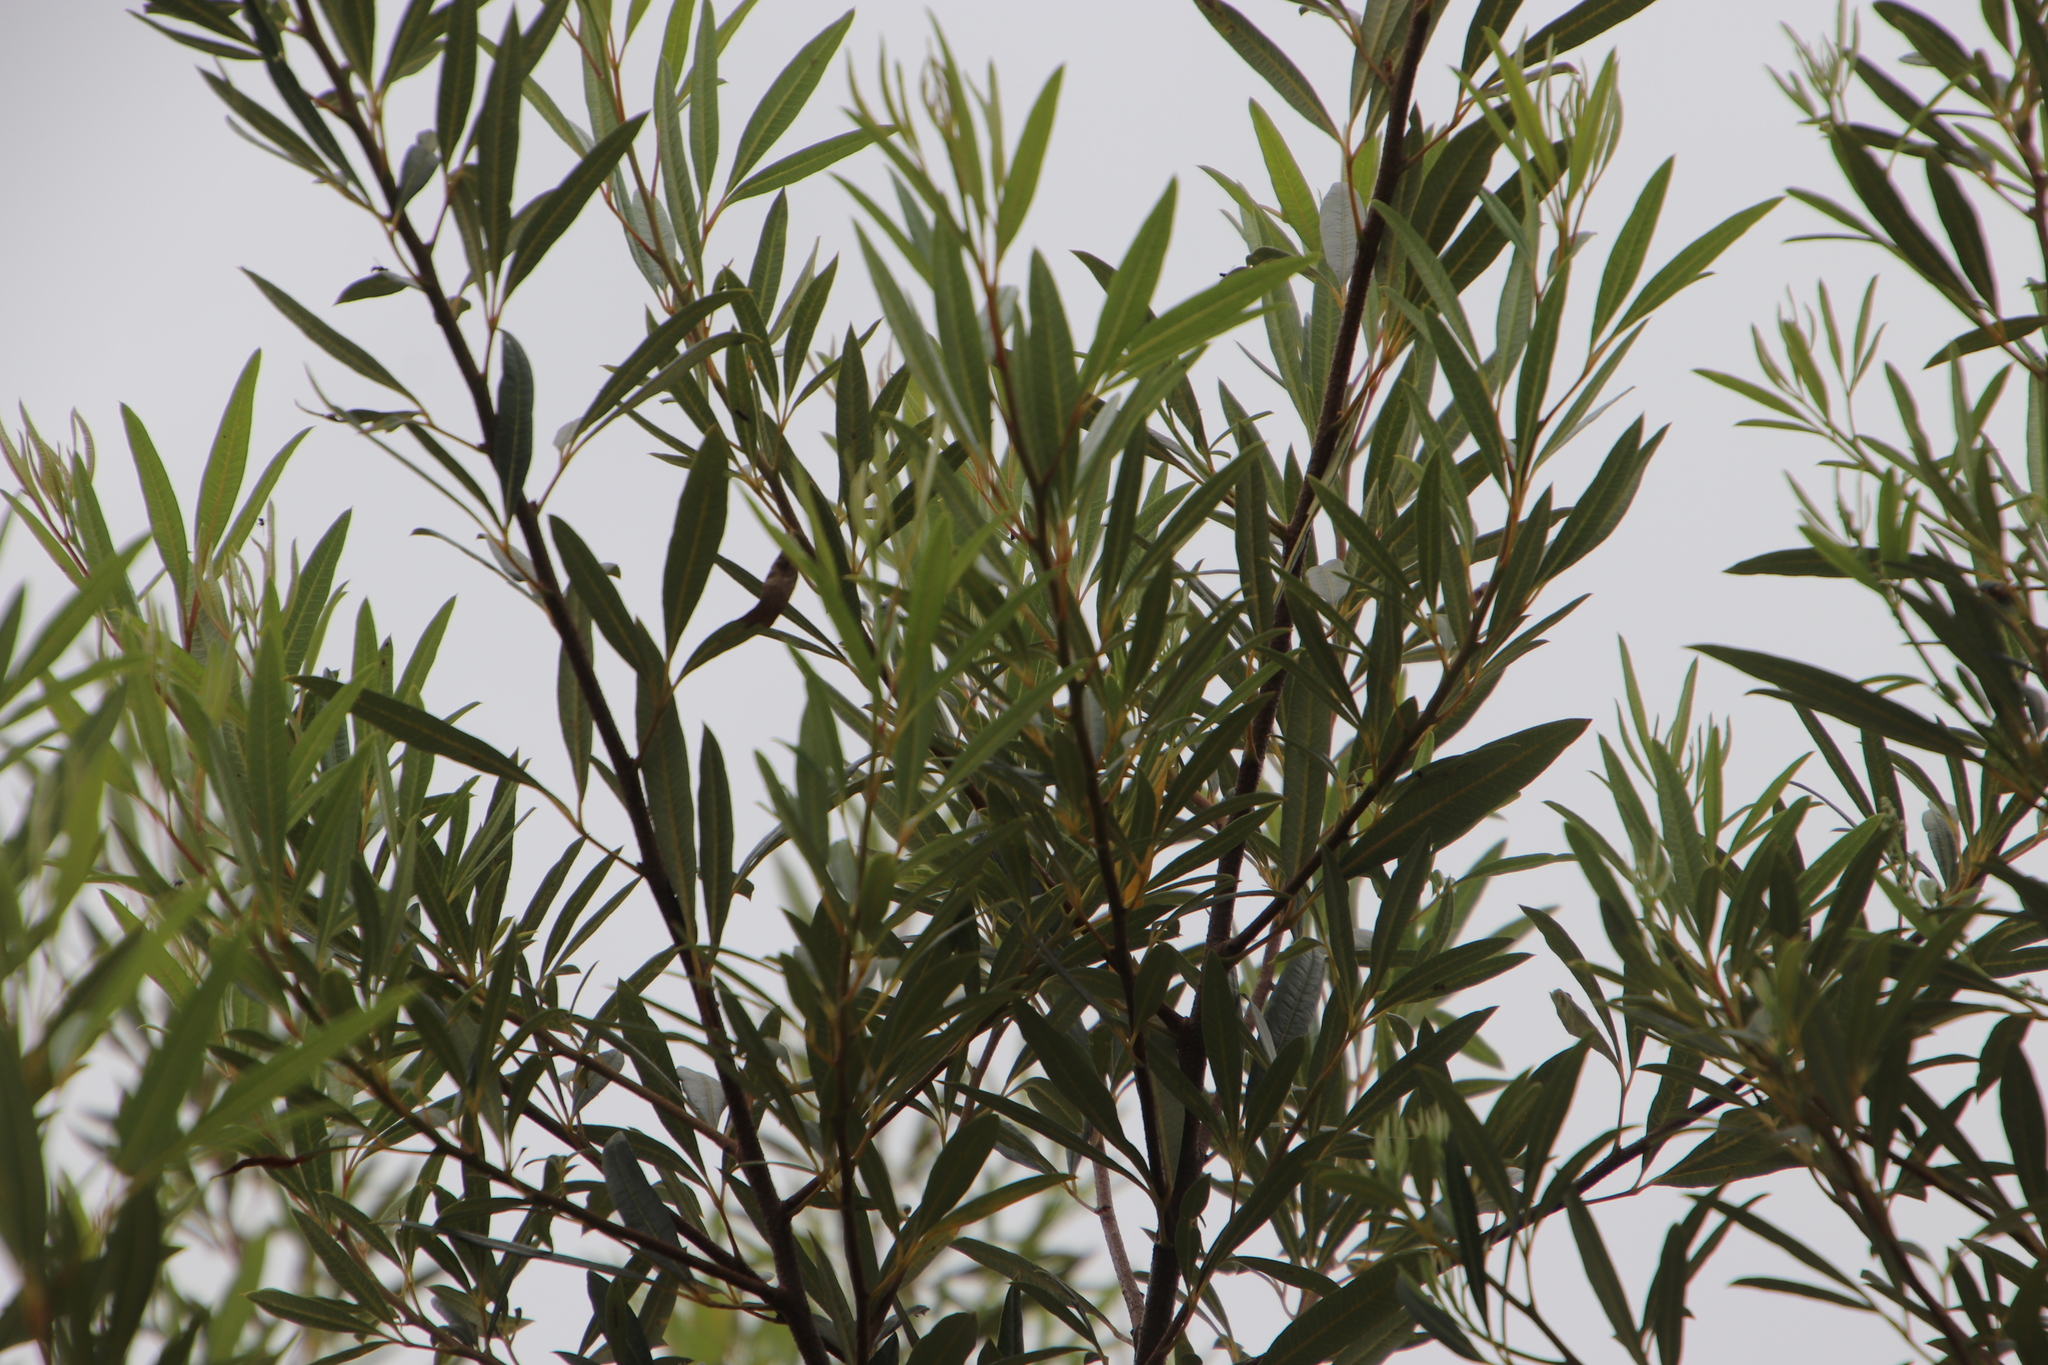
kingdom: Plantae
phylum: Tracheophyta
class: Magnoliopsida
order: Sapindales
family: Anacardiaceae
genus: Searsia
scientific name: Searsia angustifolia
